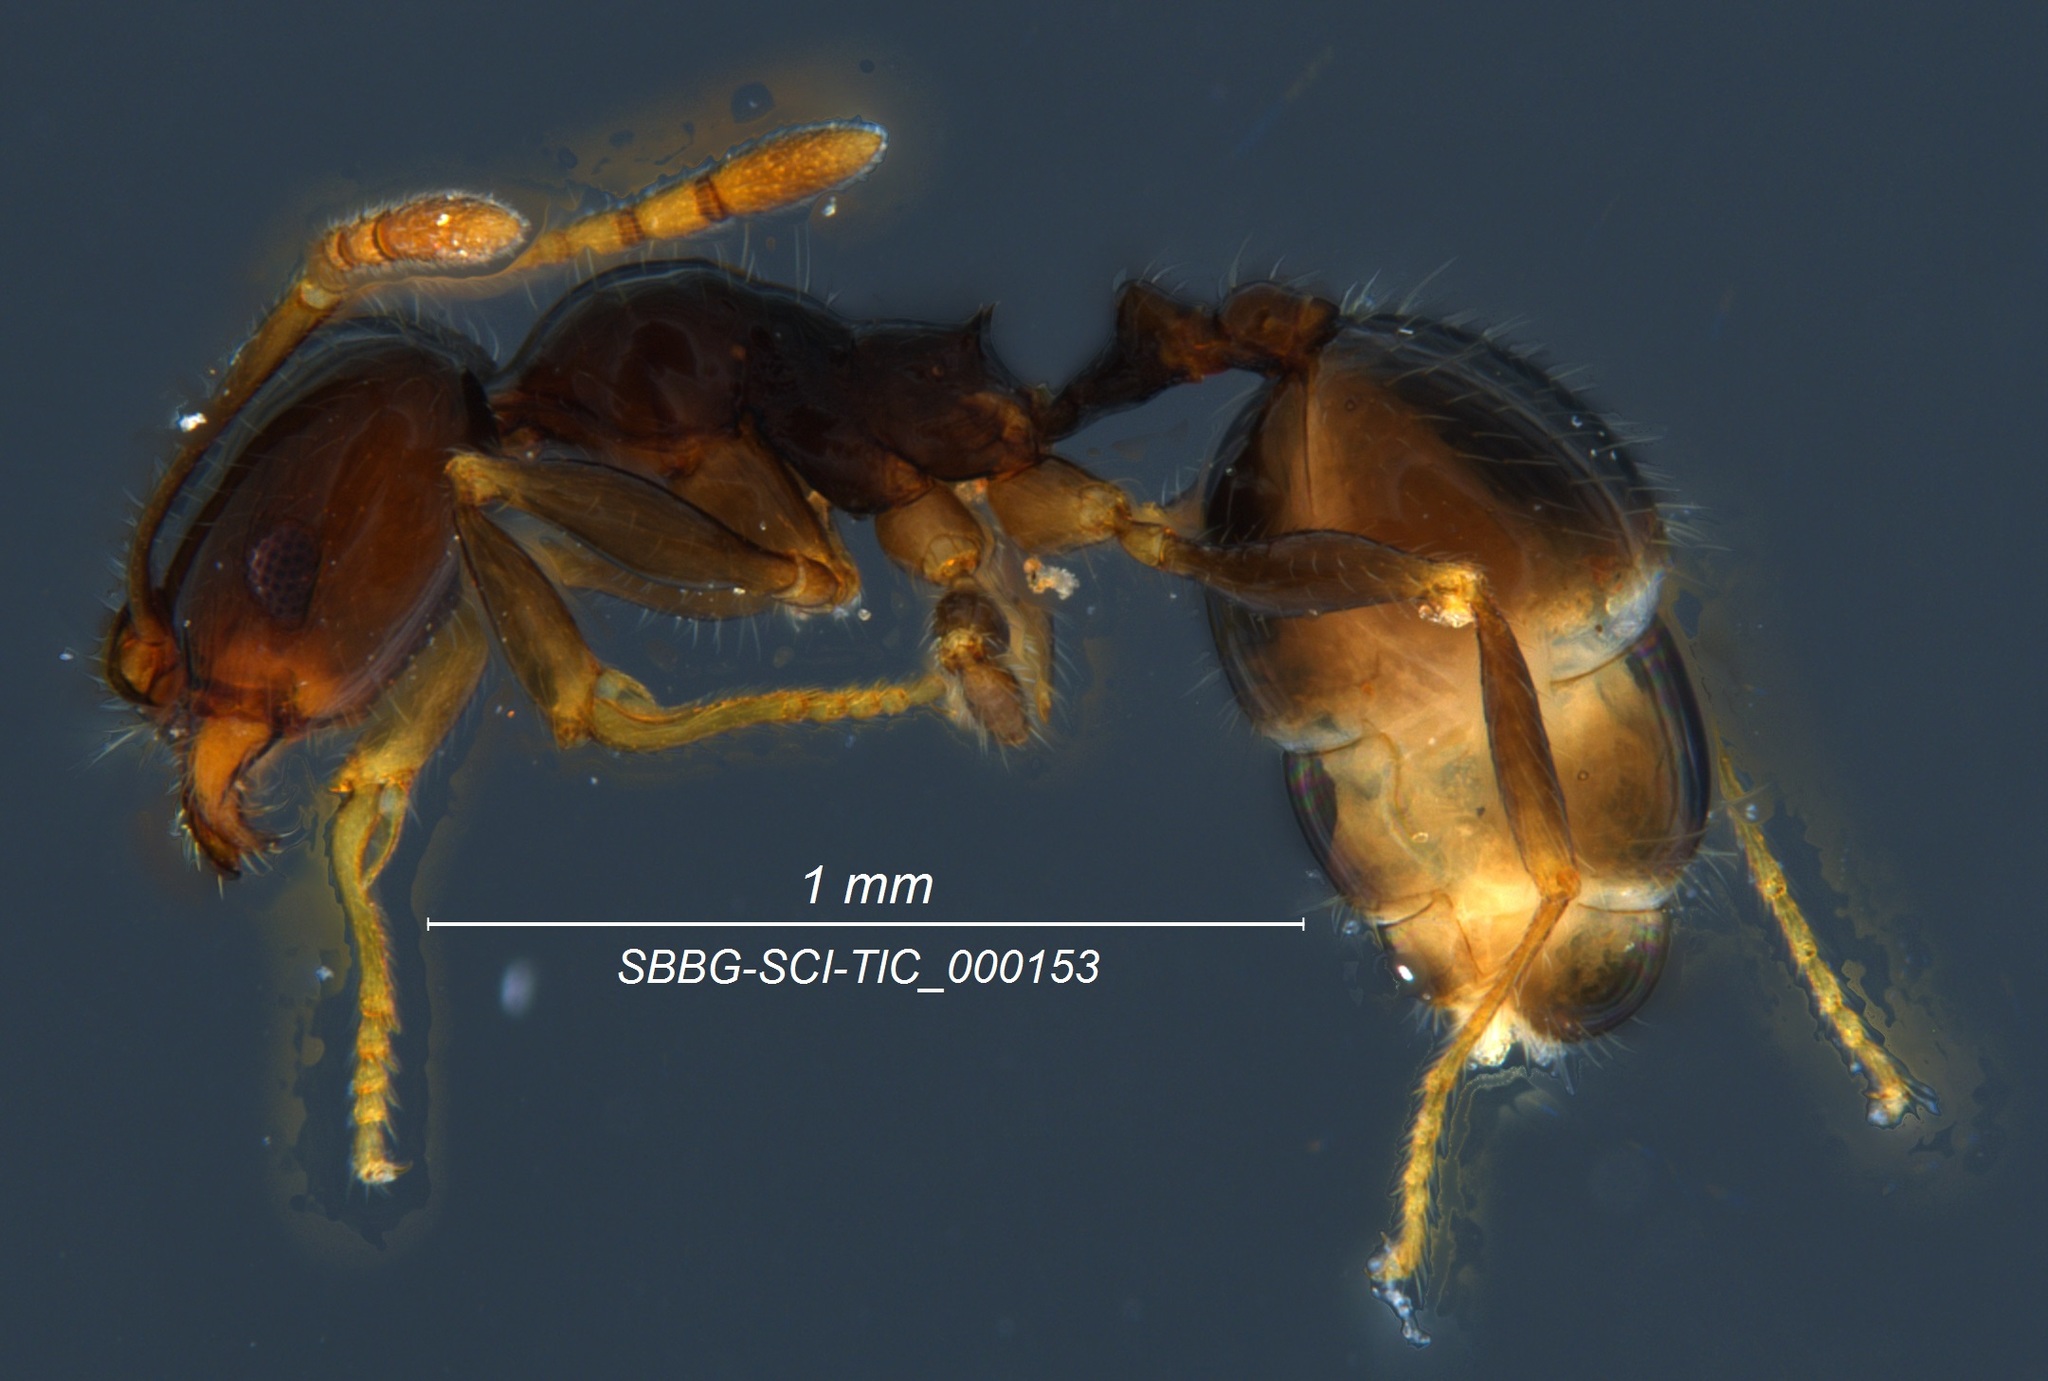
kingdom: Animalia
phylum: Arthropoda
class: Insecta
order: Hymenoptera
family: Formicidae
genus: Pheidole
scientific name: Pheidole clementensis
